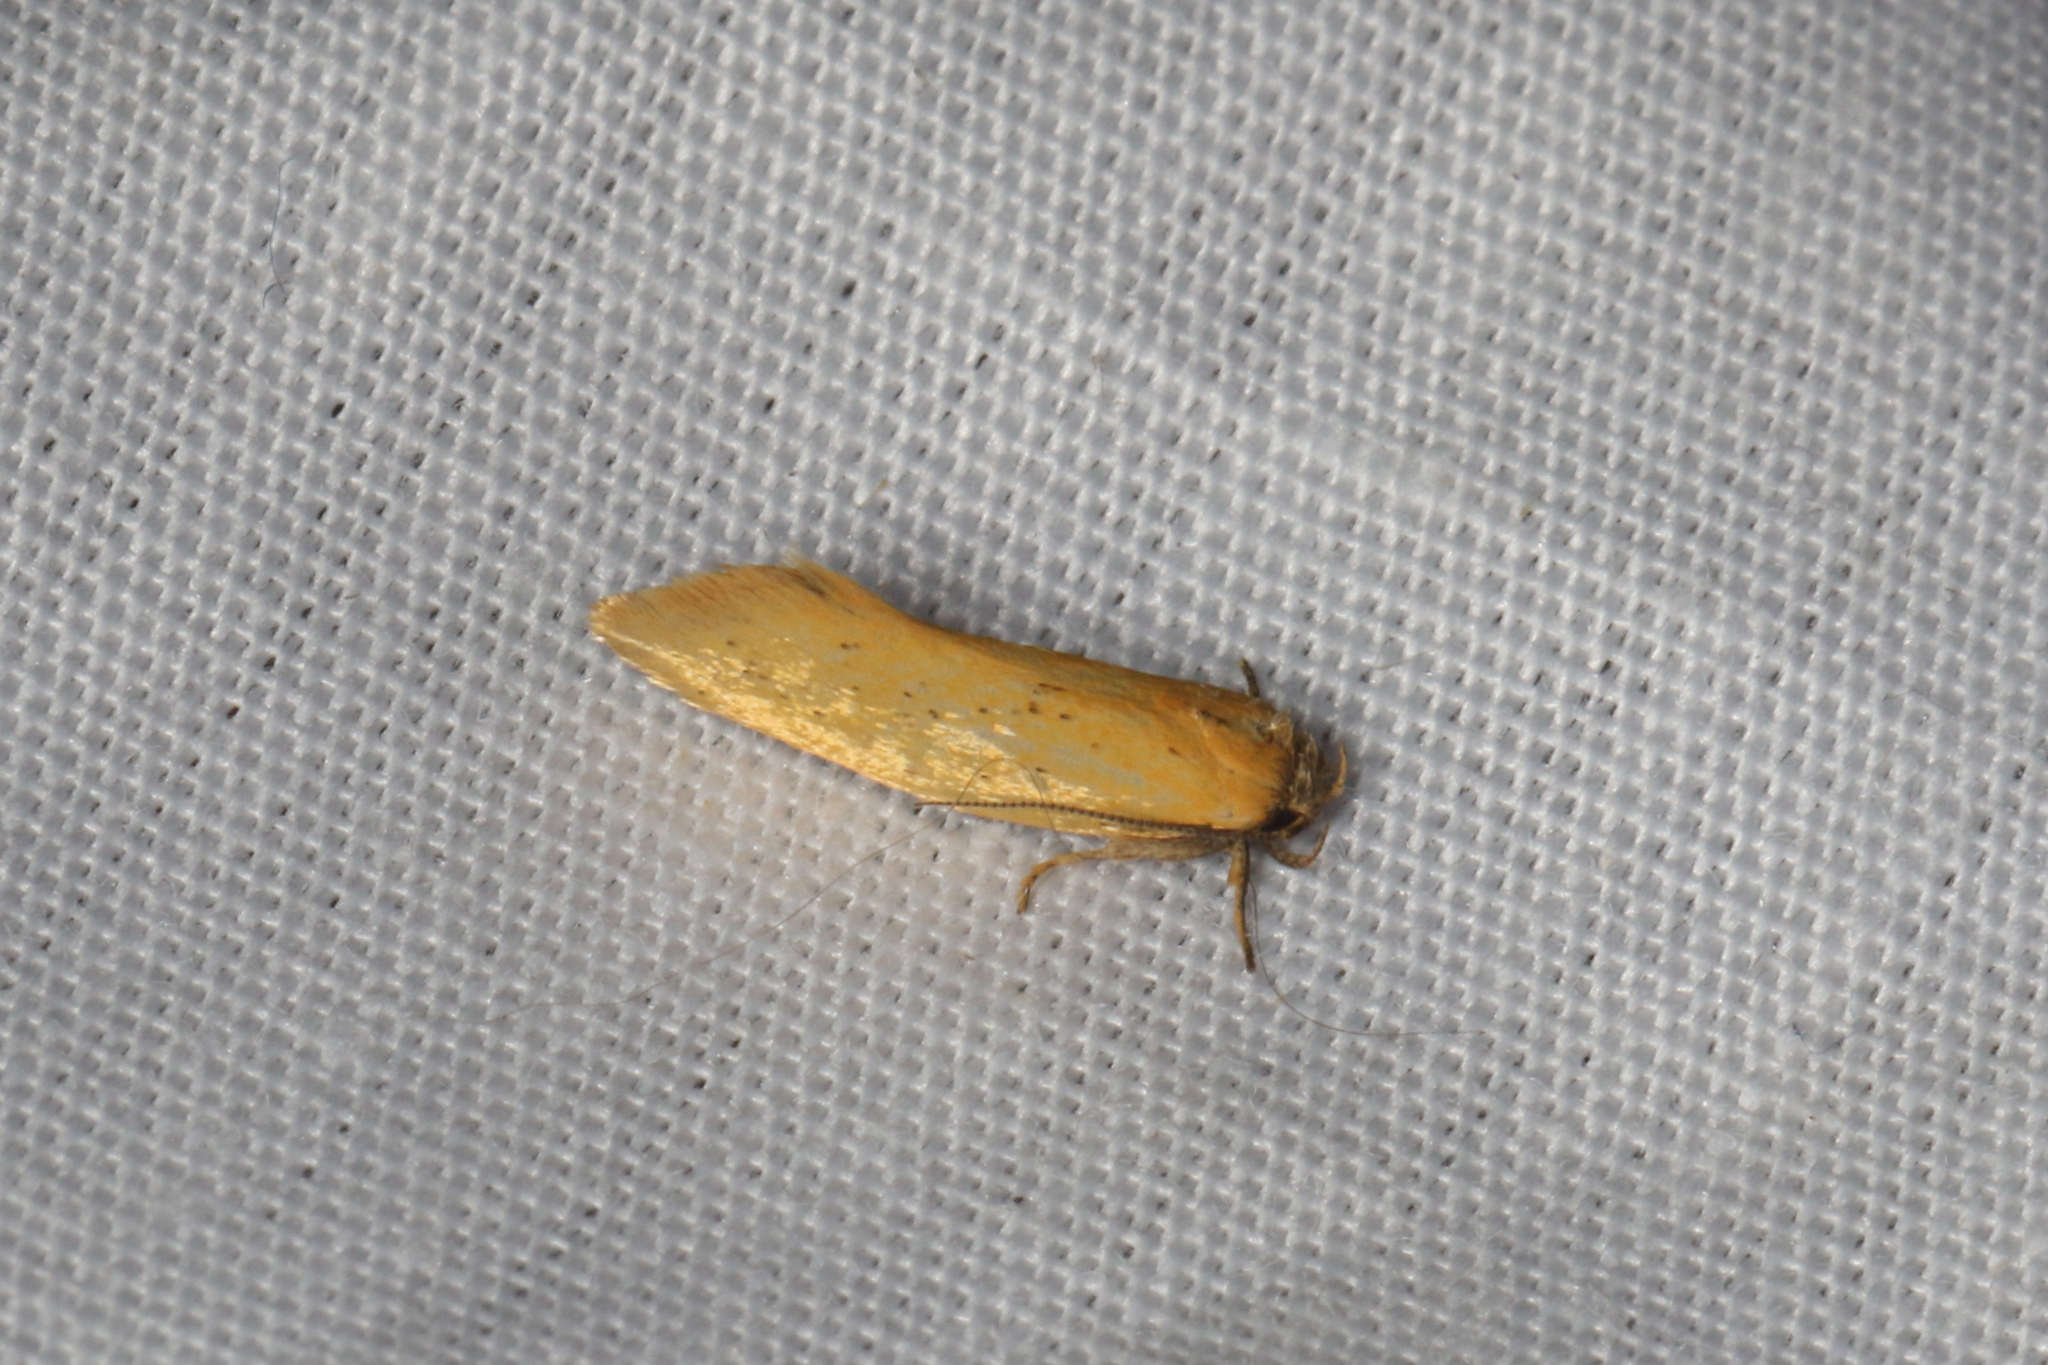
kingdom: Animalia
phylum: Arthropoda
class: Insecta
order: Lepidoptera
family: Oecophoridae
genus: Tingena
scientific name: Tingena armigerella
